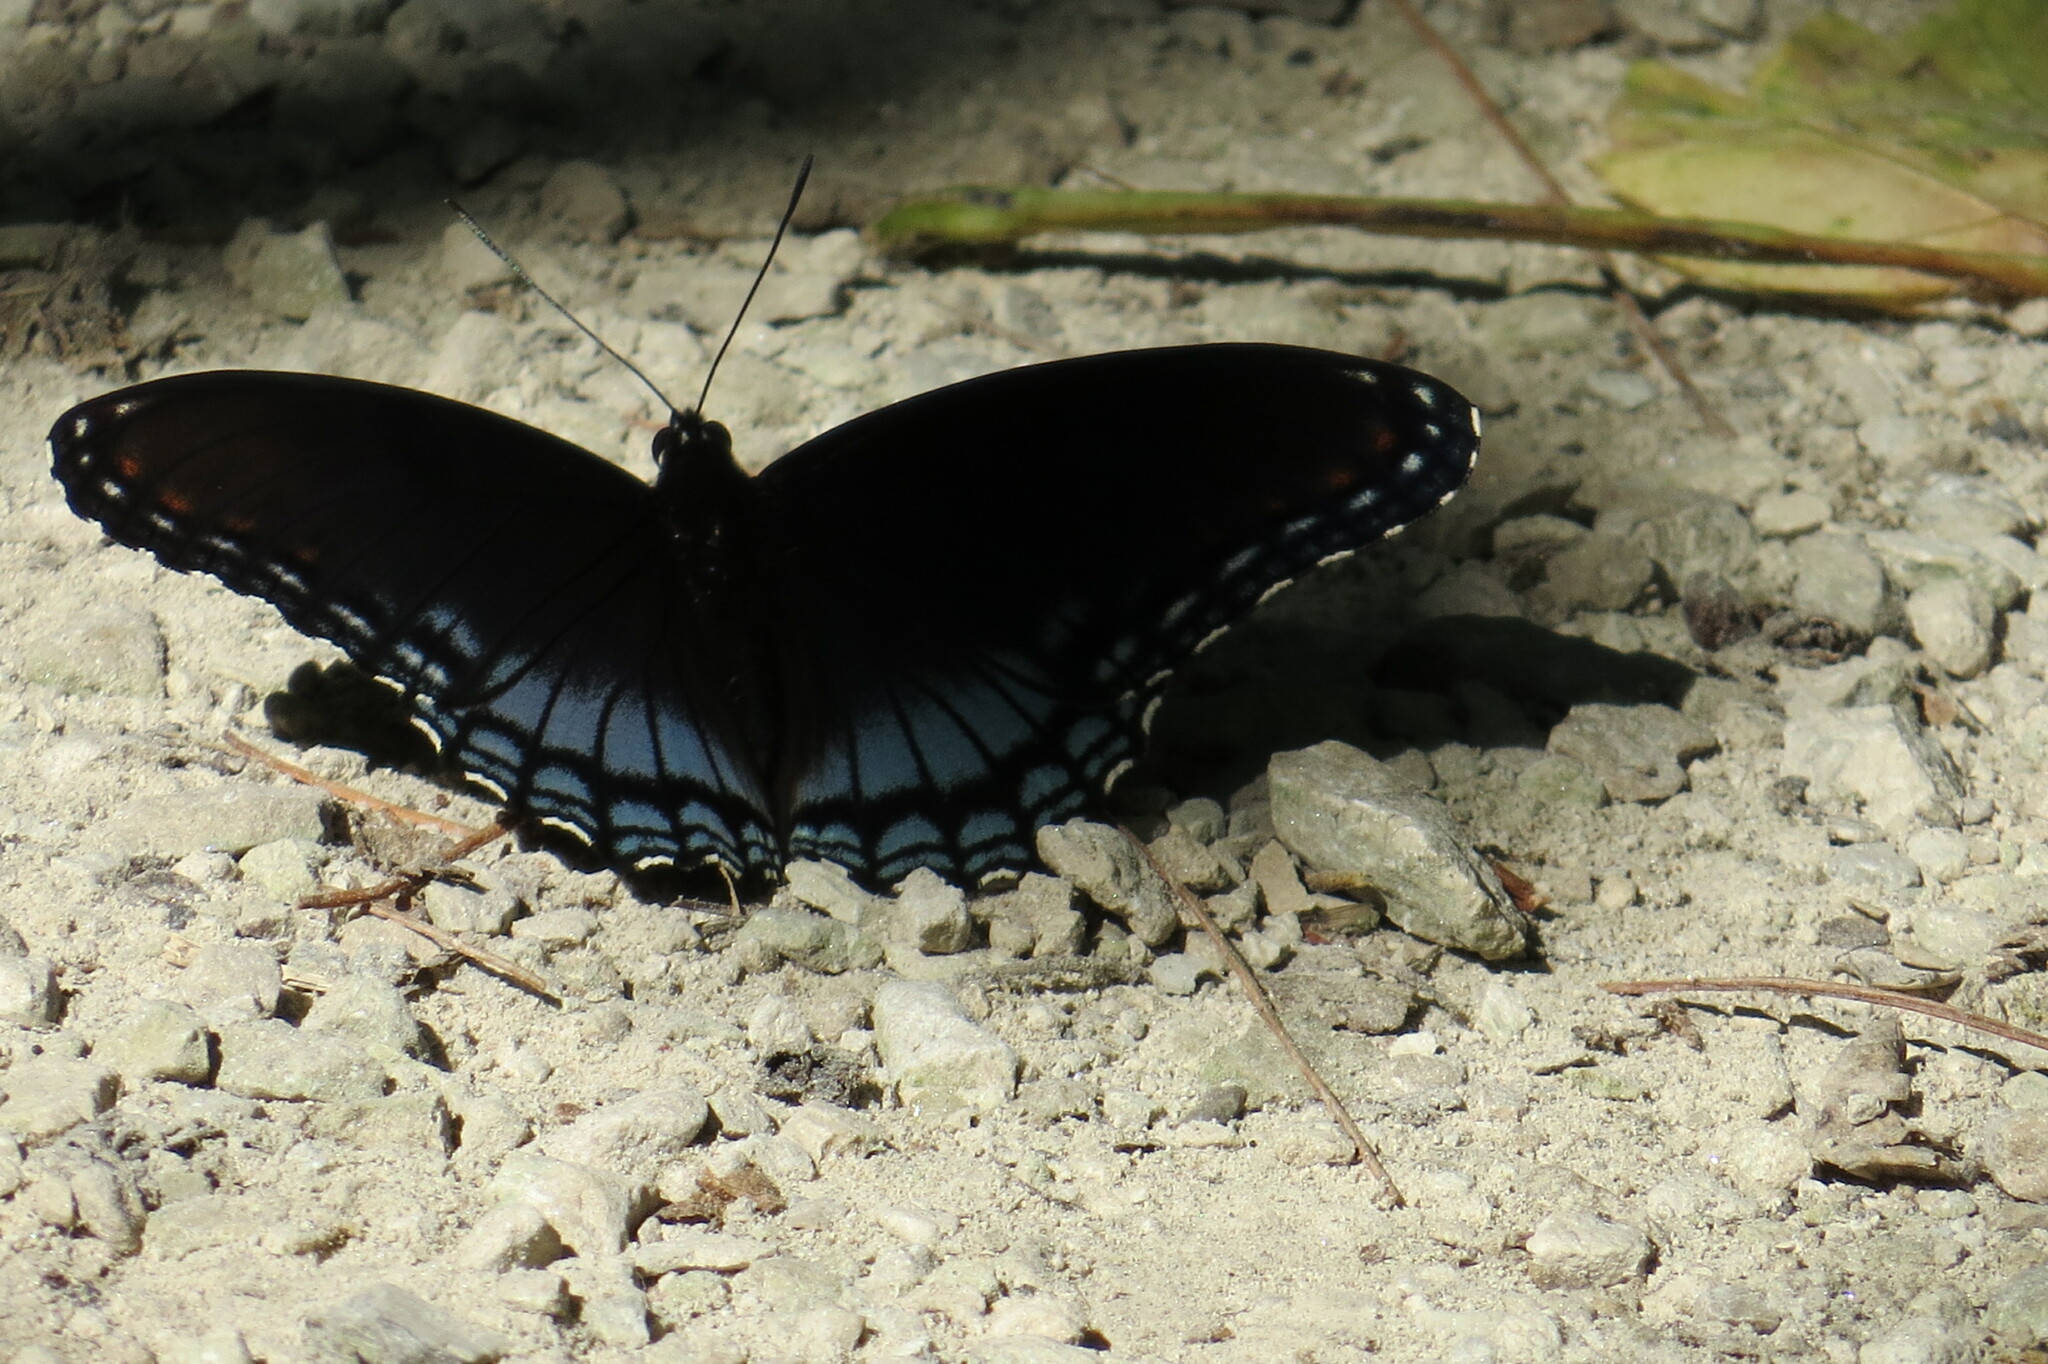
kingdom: Animalia
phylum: Arthropoda
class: Insecta
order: Lepidoptera
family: Nymphalidae
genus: Limenitis
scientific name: Limenitis astyanax
